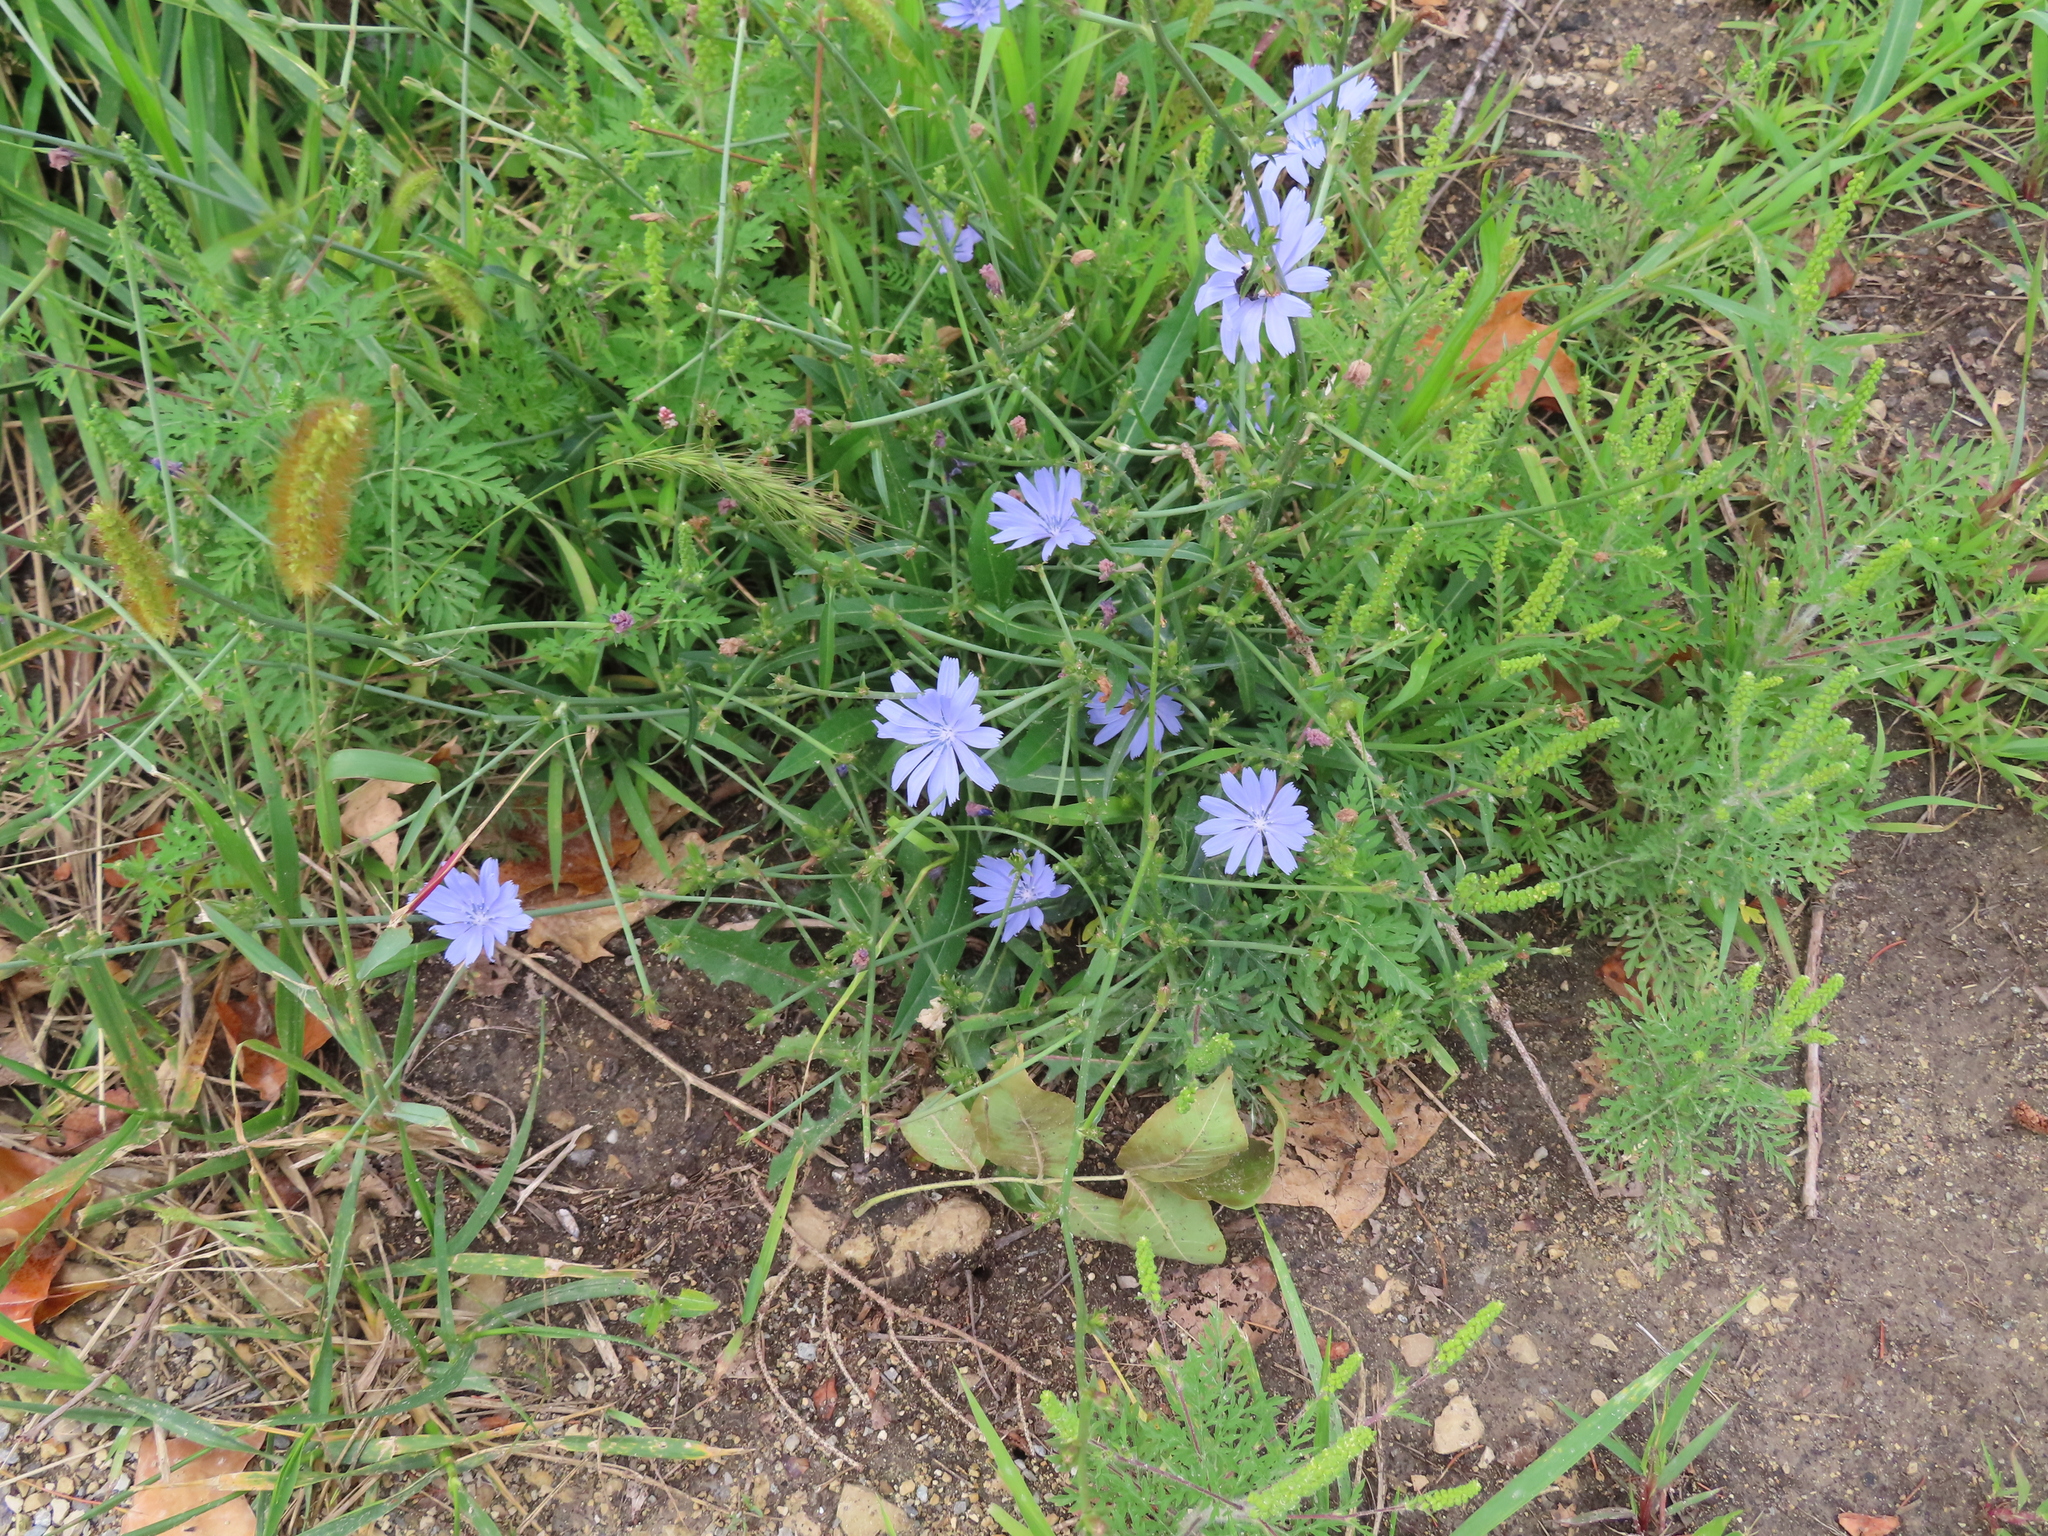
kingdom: Plantae
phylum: Tracheophyta
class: Magnoliopsida
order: Asterales
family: Asteraceae
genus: Cichorium
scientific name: Cichorium intybus
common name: Chicory
